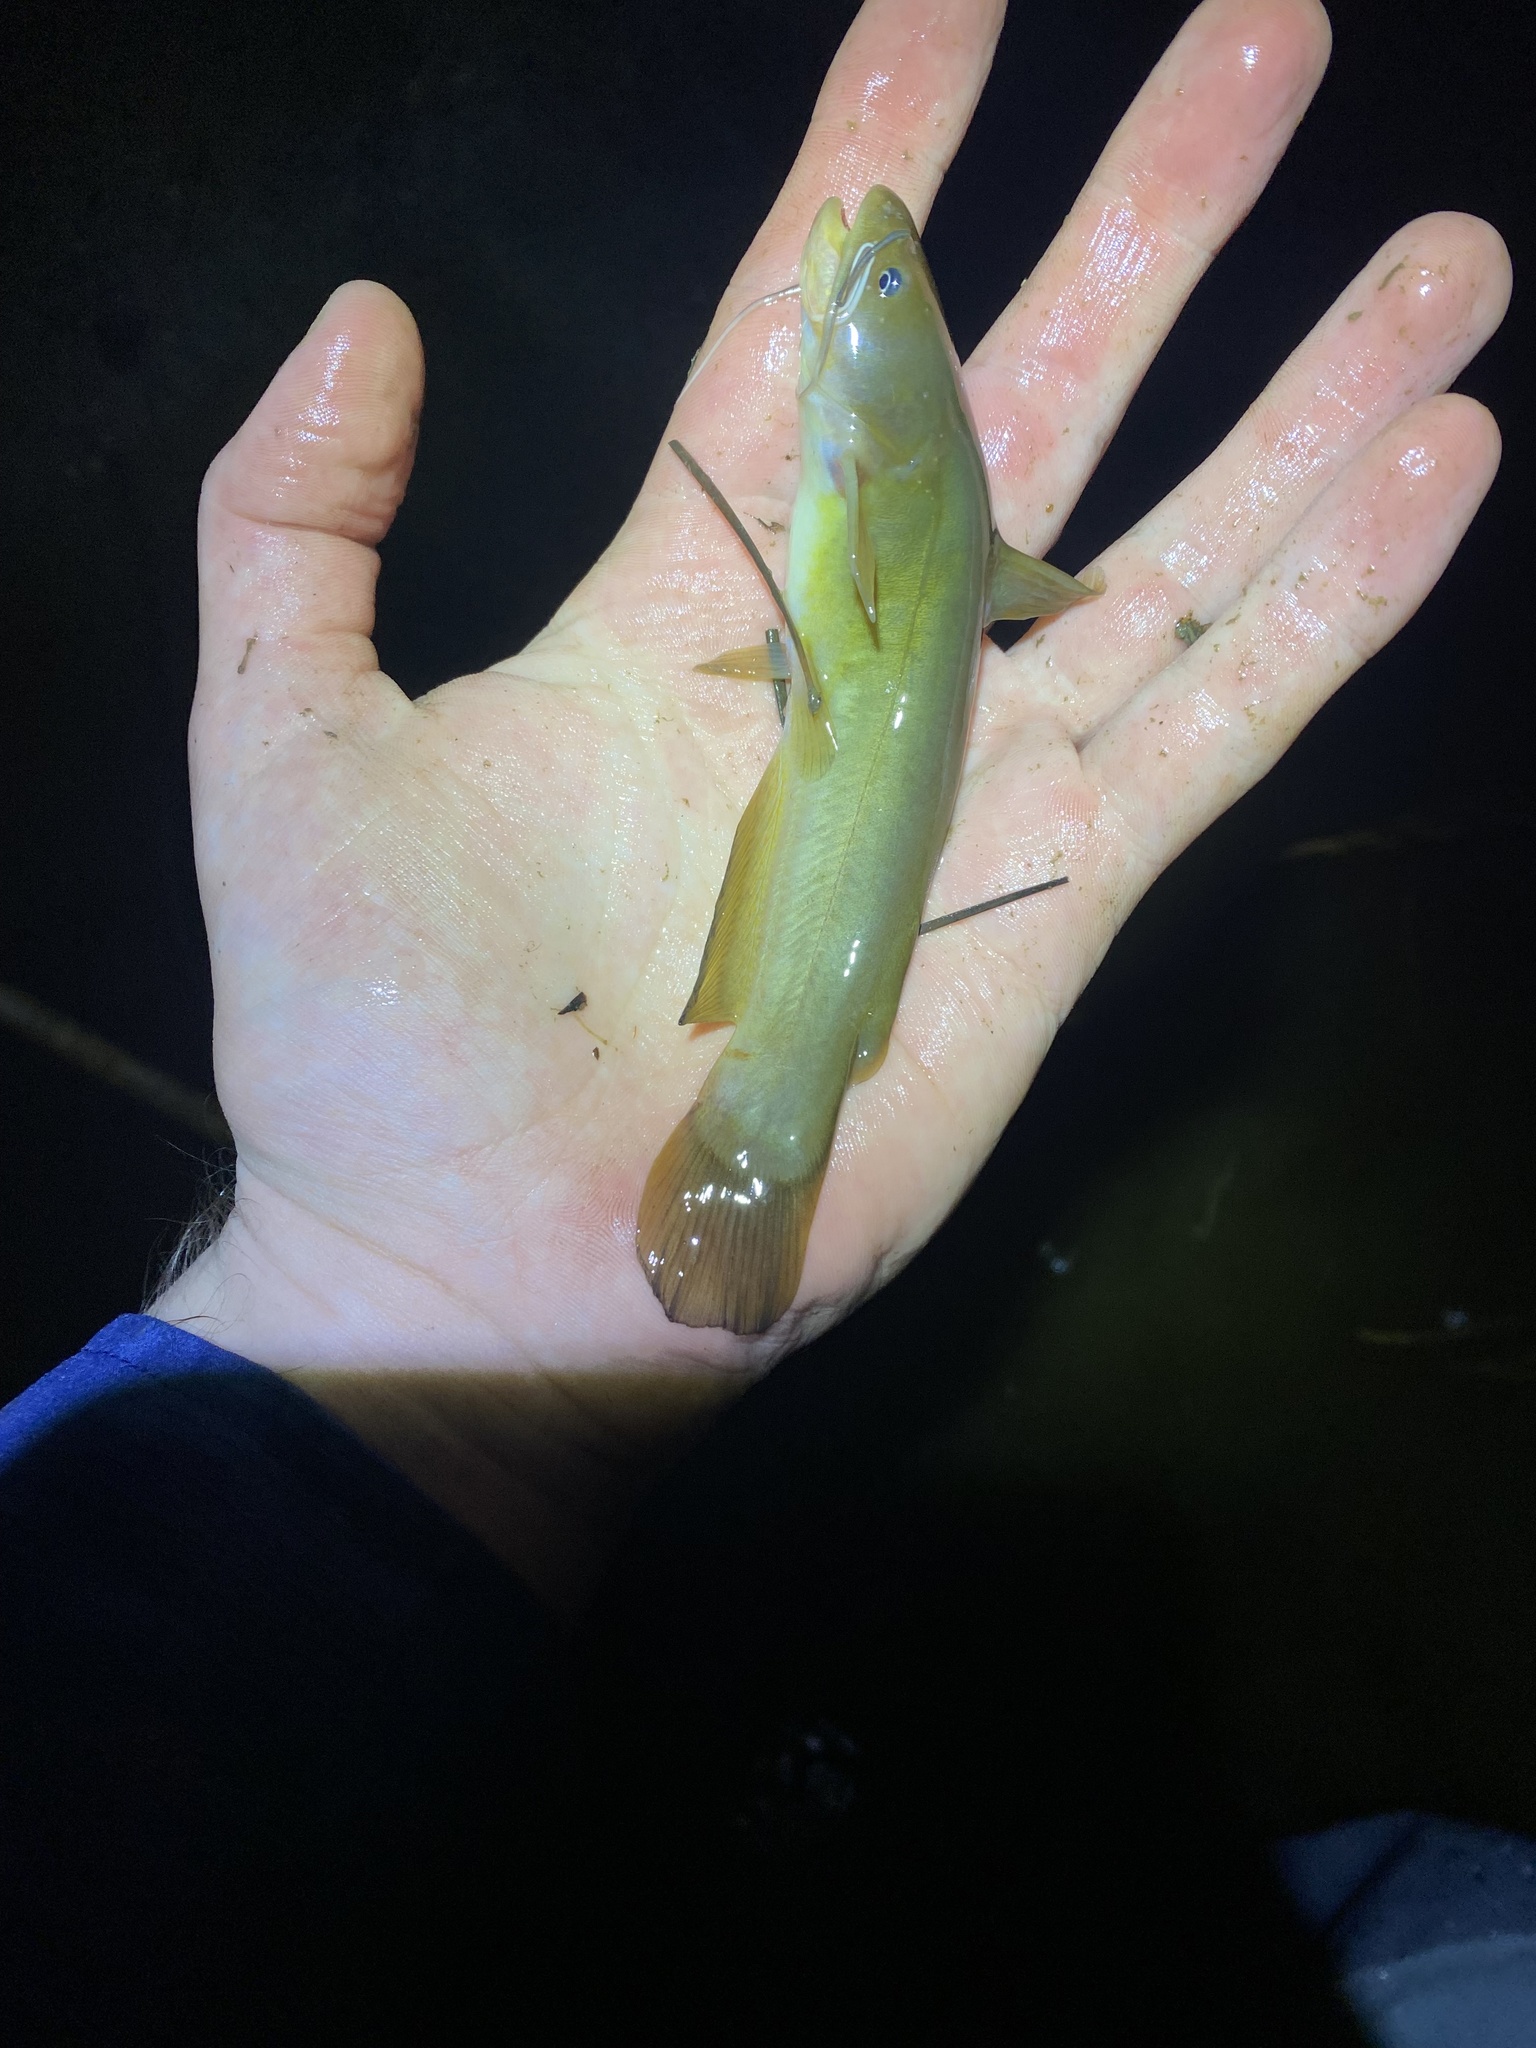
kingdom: Animalia
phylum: Chordata
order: Siluriformes
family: Ictaluridae
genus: Ameiurus
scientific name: Ameiurus natalis
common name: Yellow bullhead
